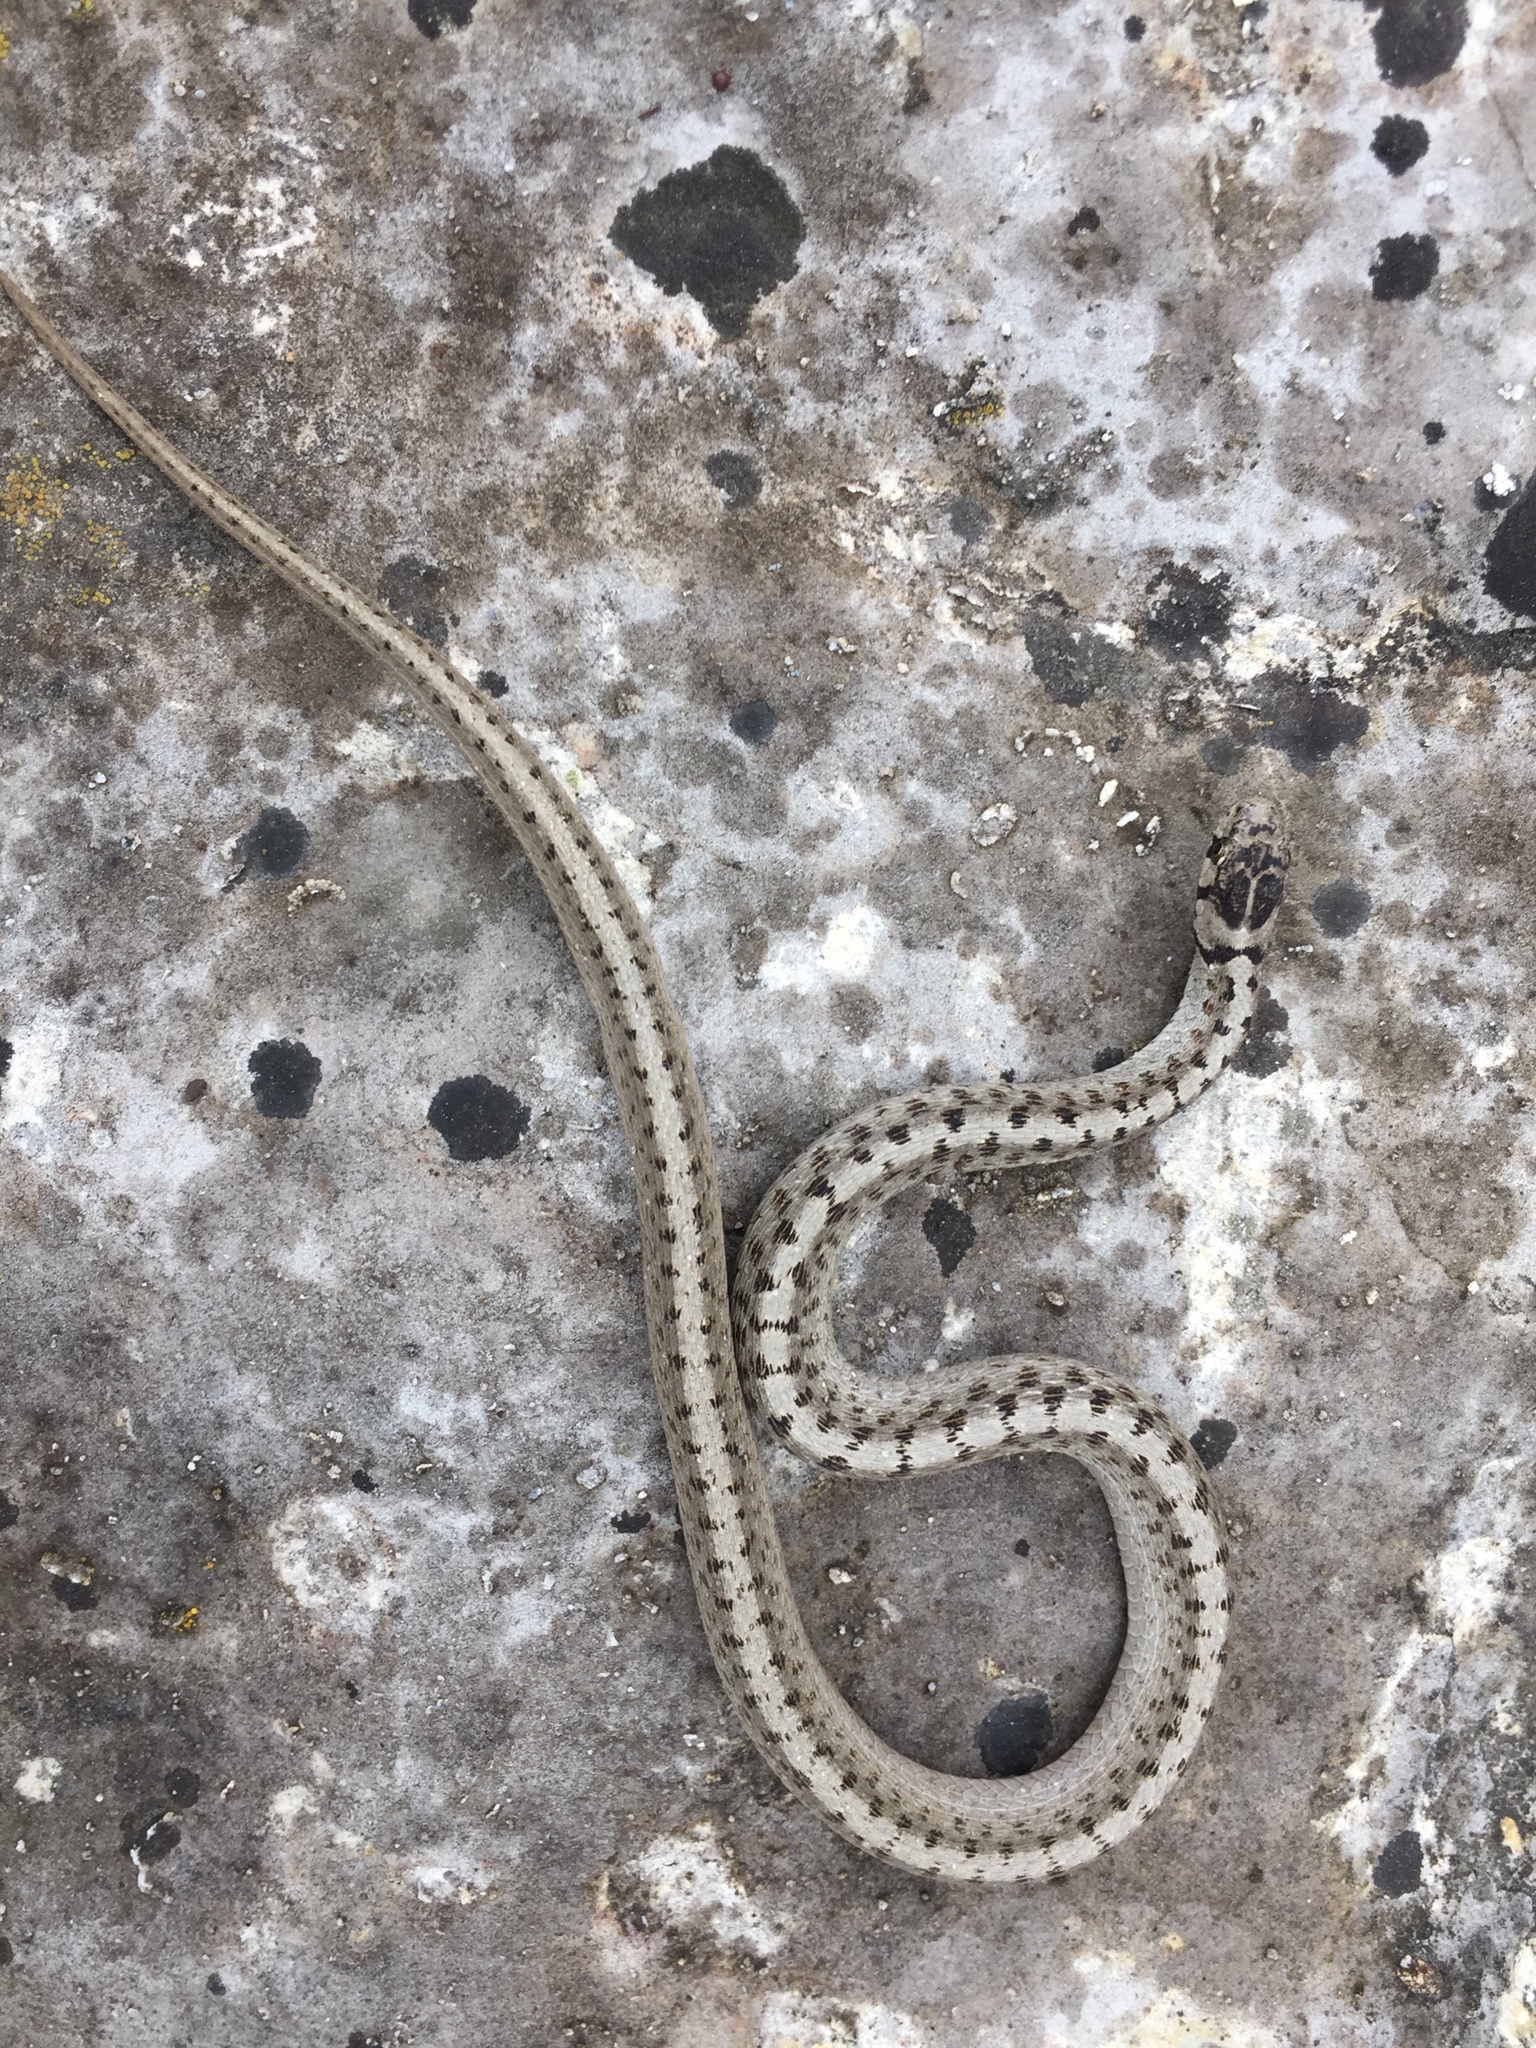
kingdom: Animalia
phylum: Chordata
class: Squamata
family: Colubridae
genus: Storeria
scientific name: Storeria dekayi
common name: (dekay’s) brown snake
